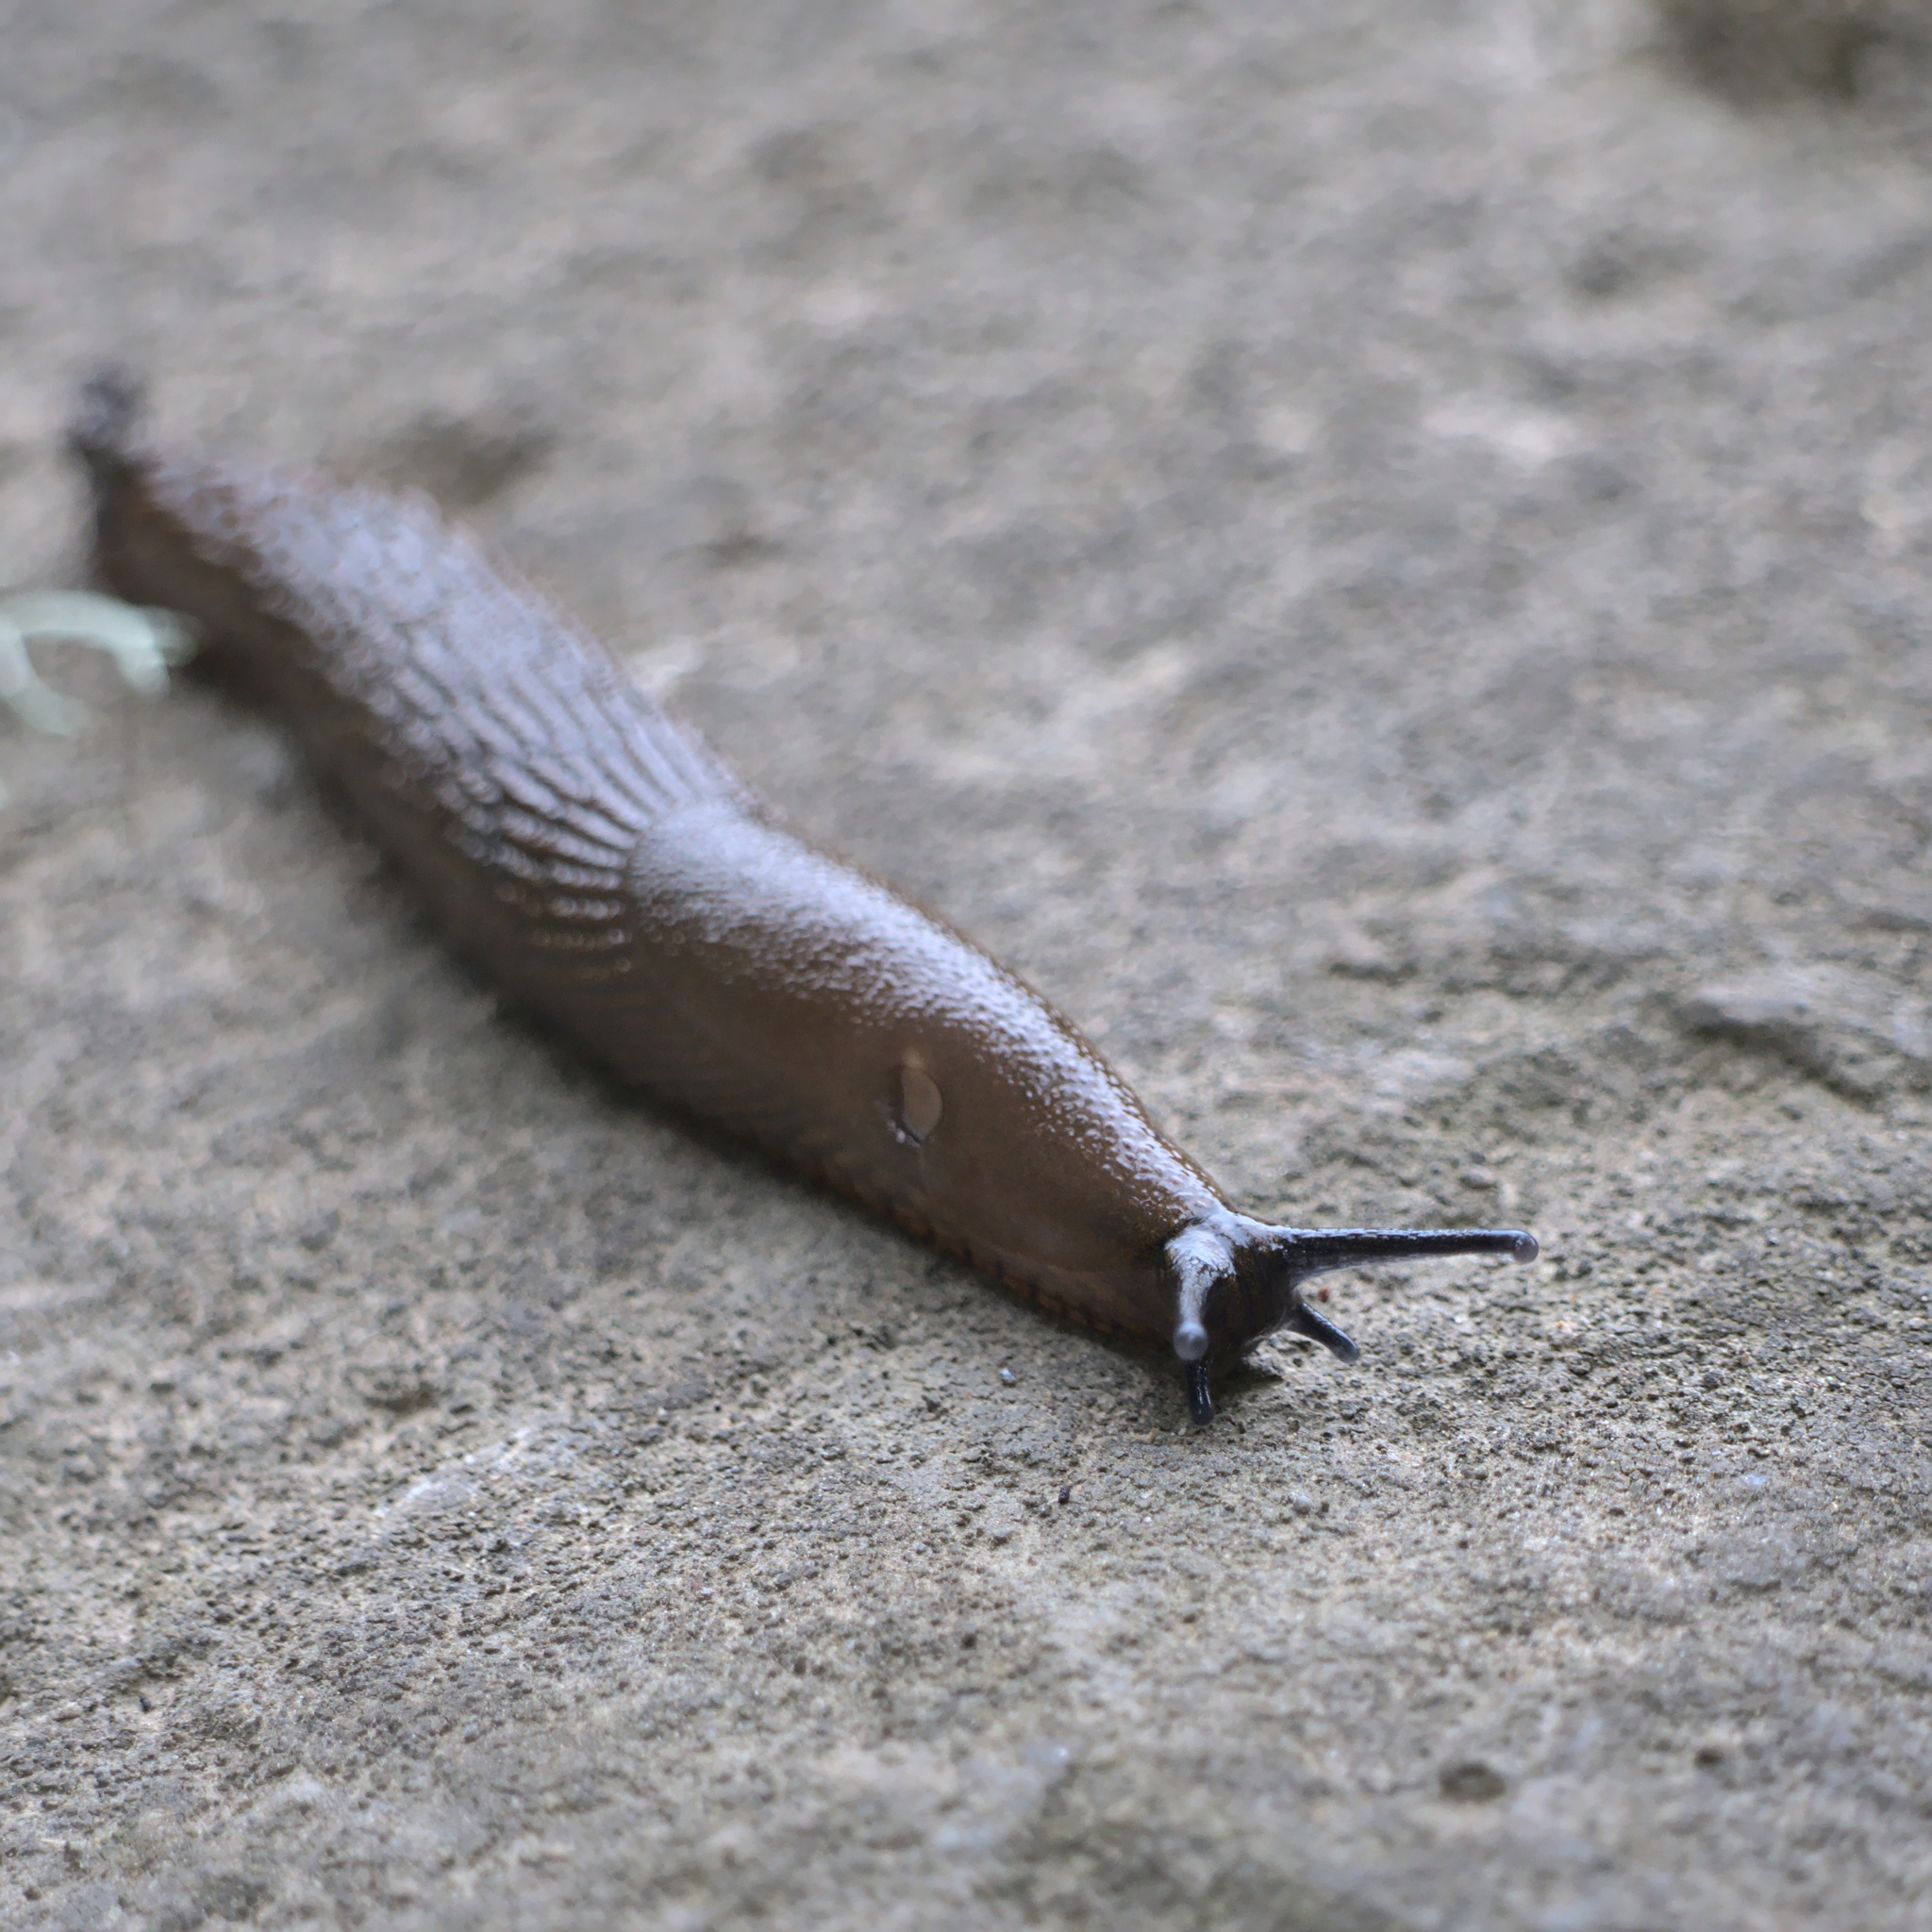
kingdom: Animalia
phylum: Mollusca
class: Gastropoda
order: Stylommatophora
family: Arionidae
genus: Arion
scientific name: Arion rufus
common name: Chocolate arion
